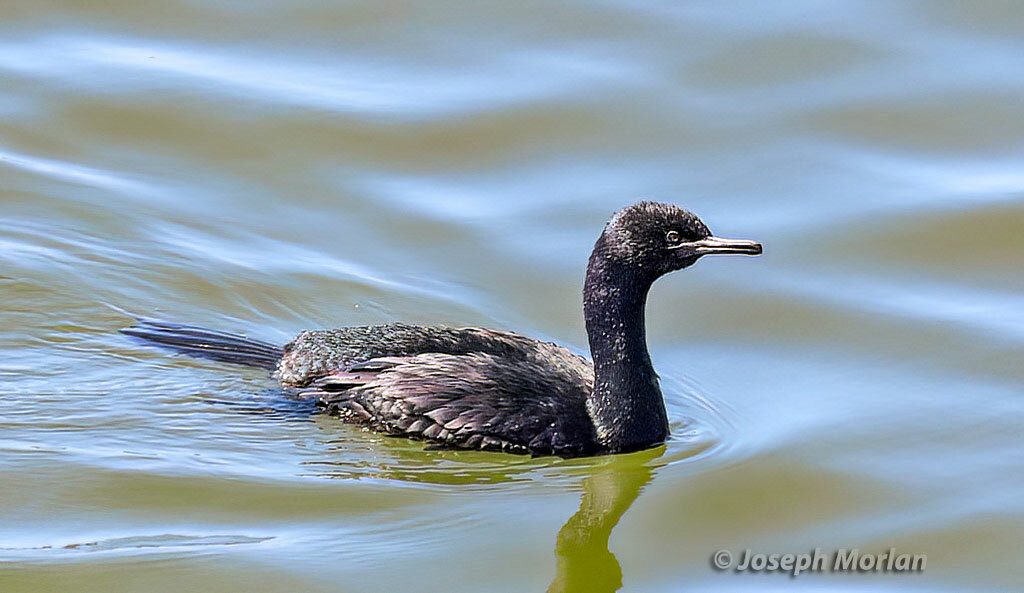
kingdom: Animalia
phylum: Chordata
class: Aves
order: Suliformes
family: Phalacrocoracidae
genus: Phalacrocorax
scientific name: Phalacrocorax pelagicus
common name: Pelagic cormorant
